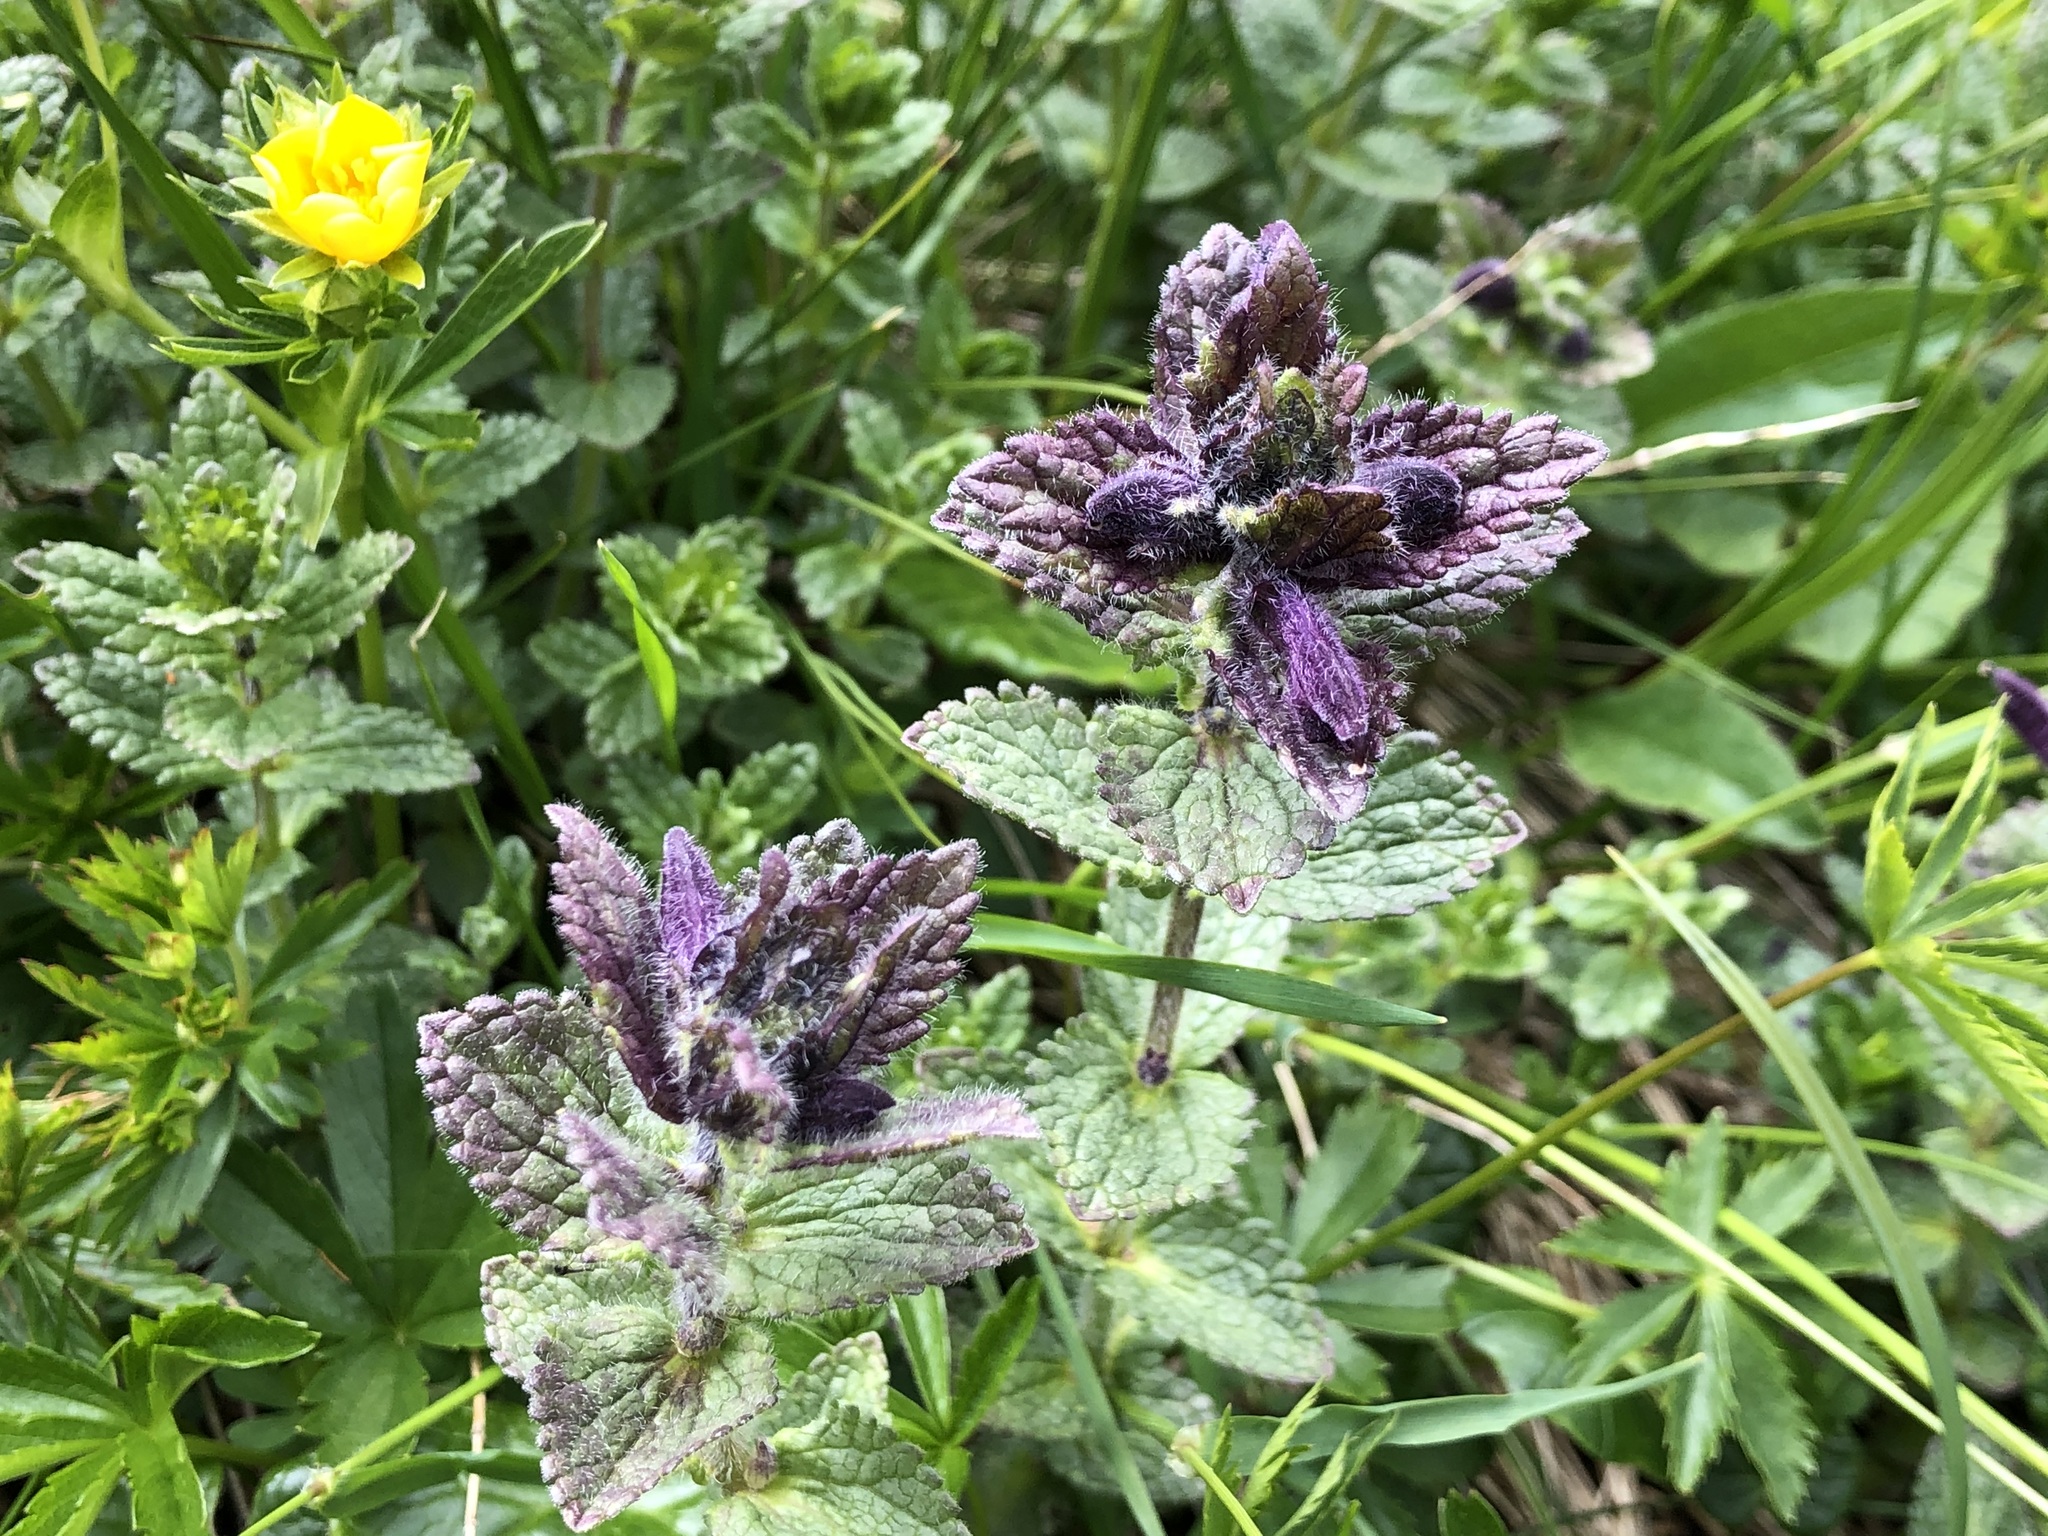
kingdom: Plantae
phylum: Tracheophyta
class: Magnoliopsida
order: Lamiales
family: Orobanchaceae
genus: Bartsia
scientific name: Bartsia alpina
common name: Alpine bartsia
